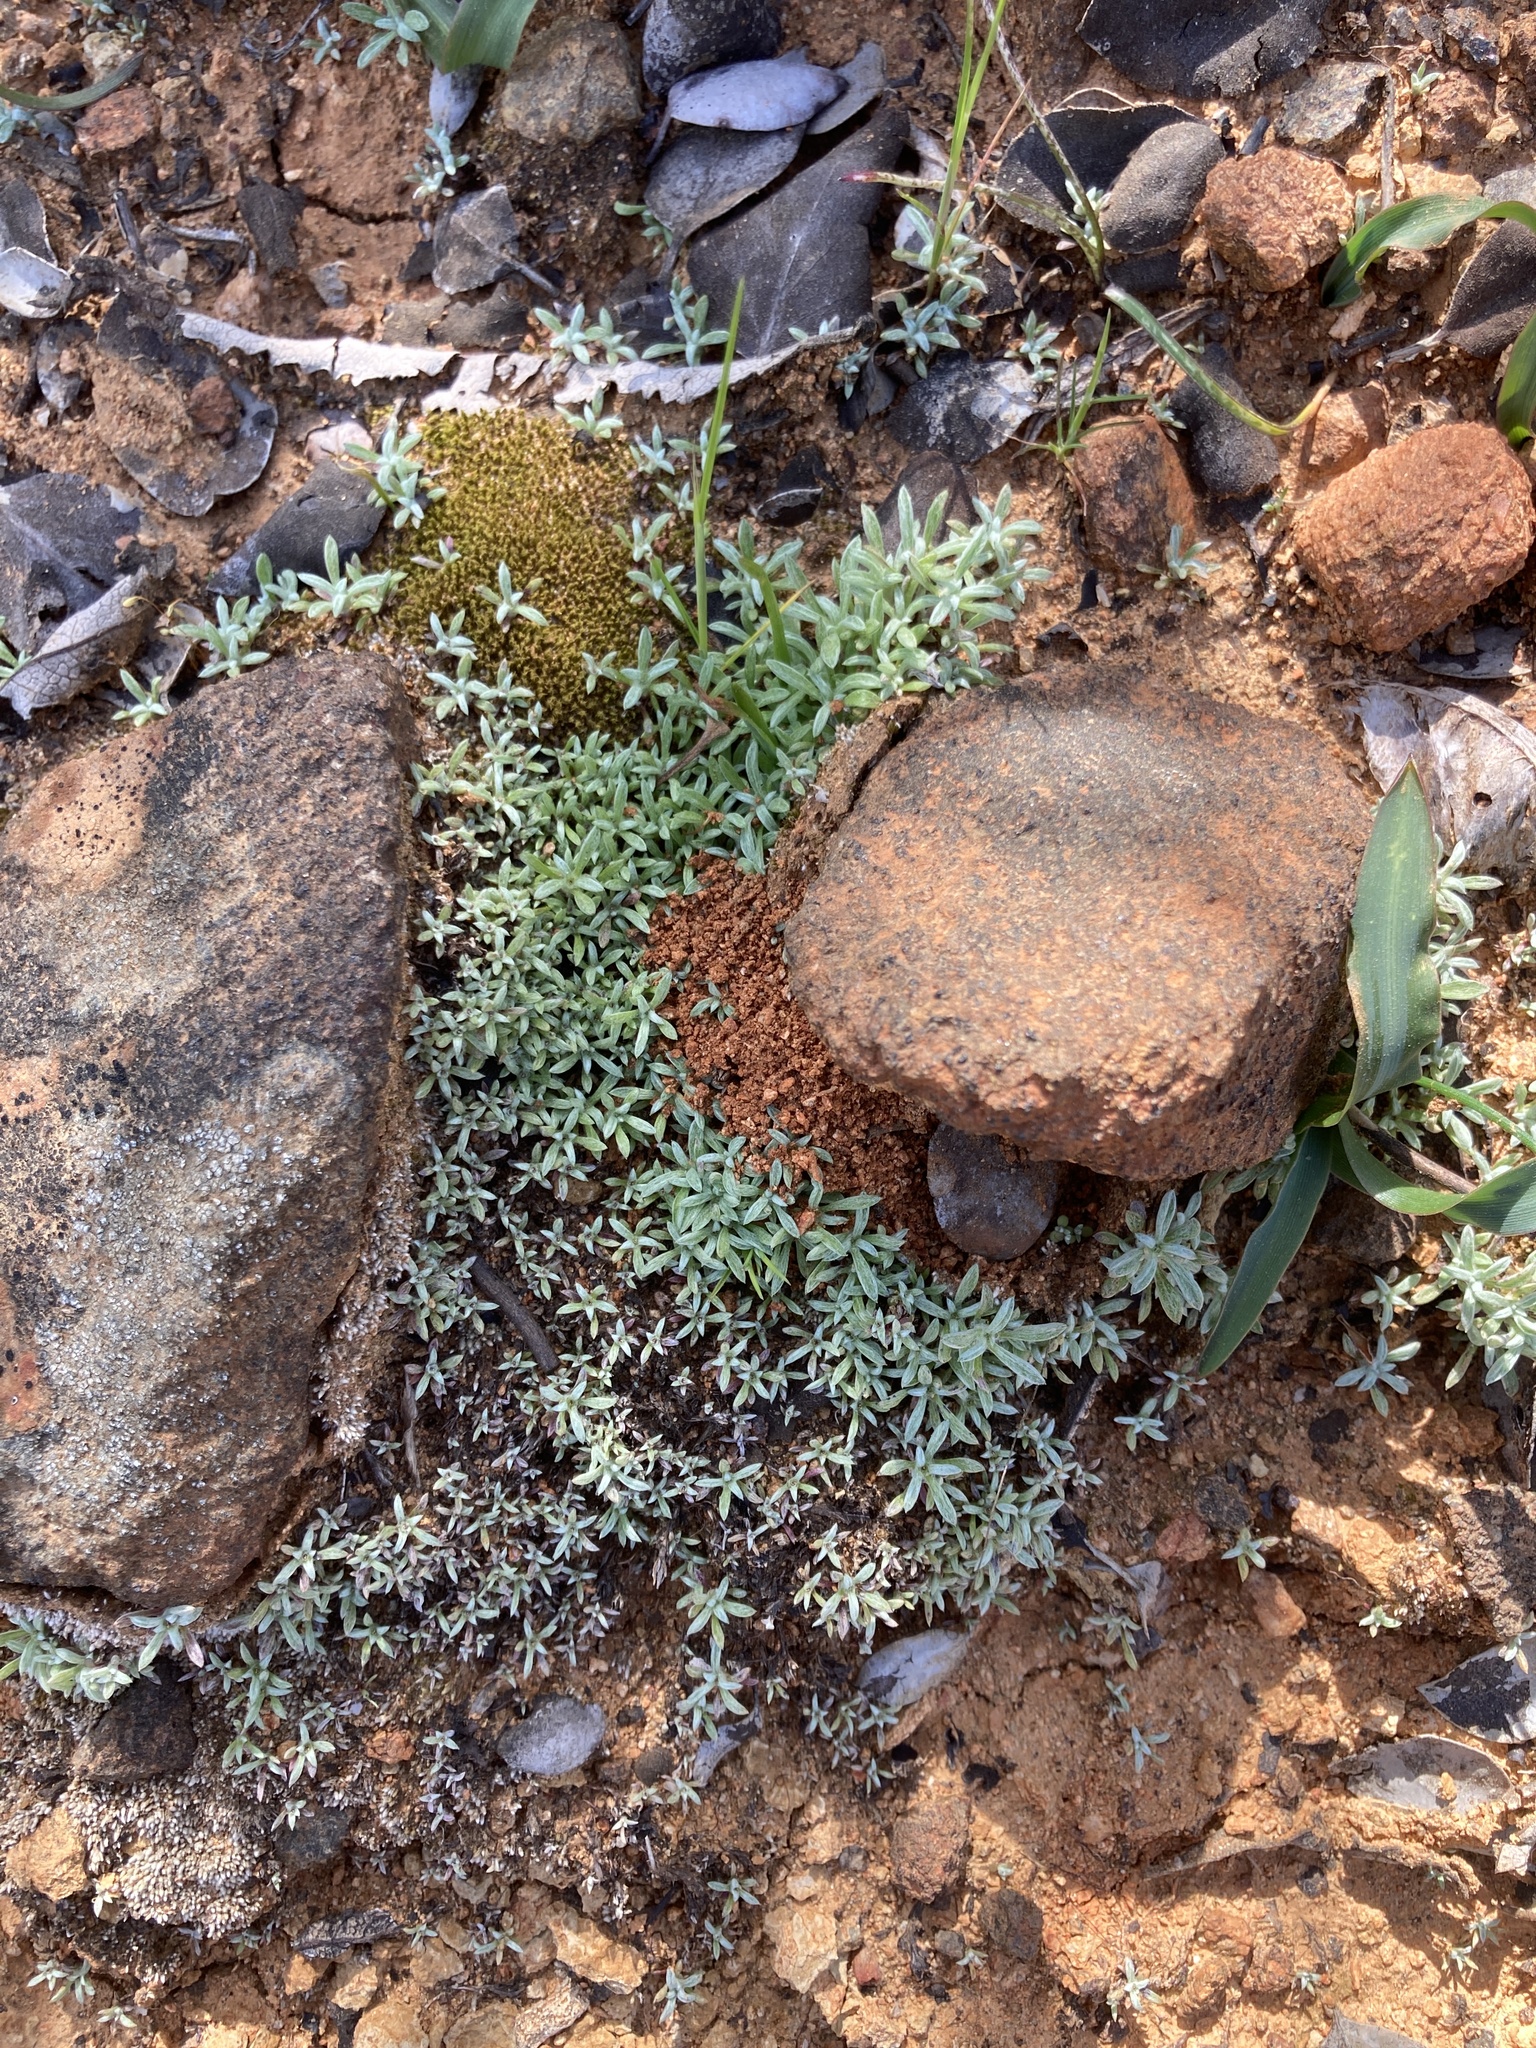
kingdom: Plantae
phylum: Tracheophyta
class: Magnoliopsida
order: Asterales
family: Asteraceae
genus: Hesperevax
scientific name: Hesperevax acaulis
